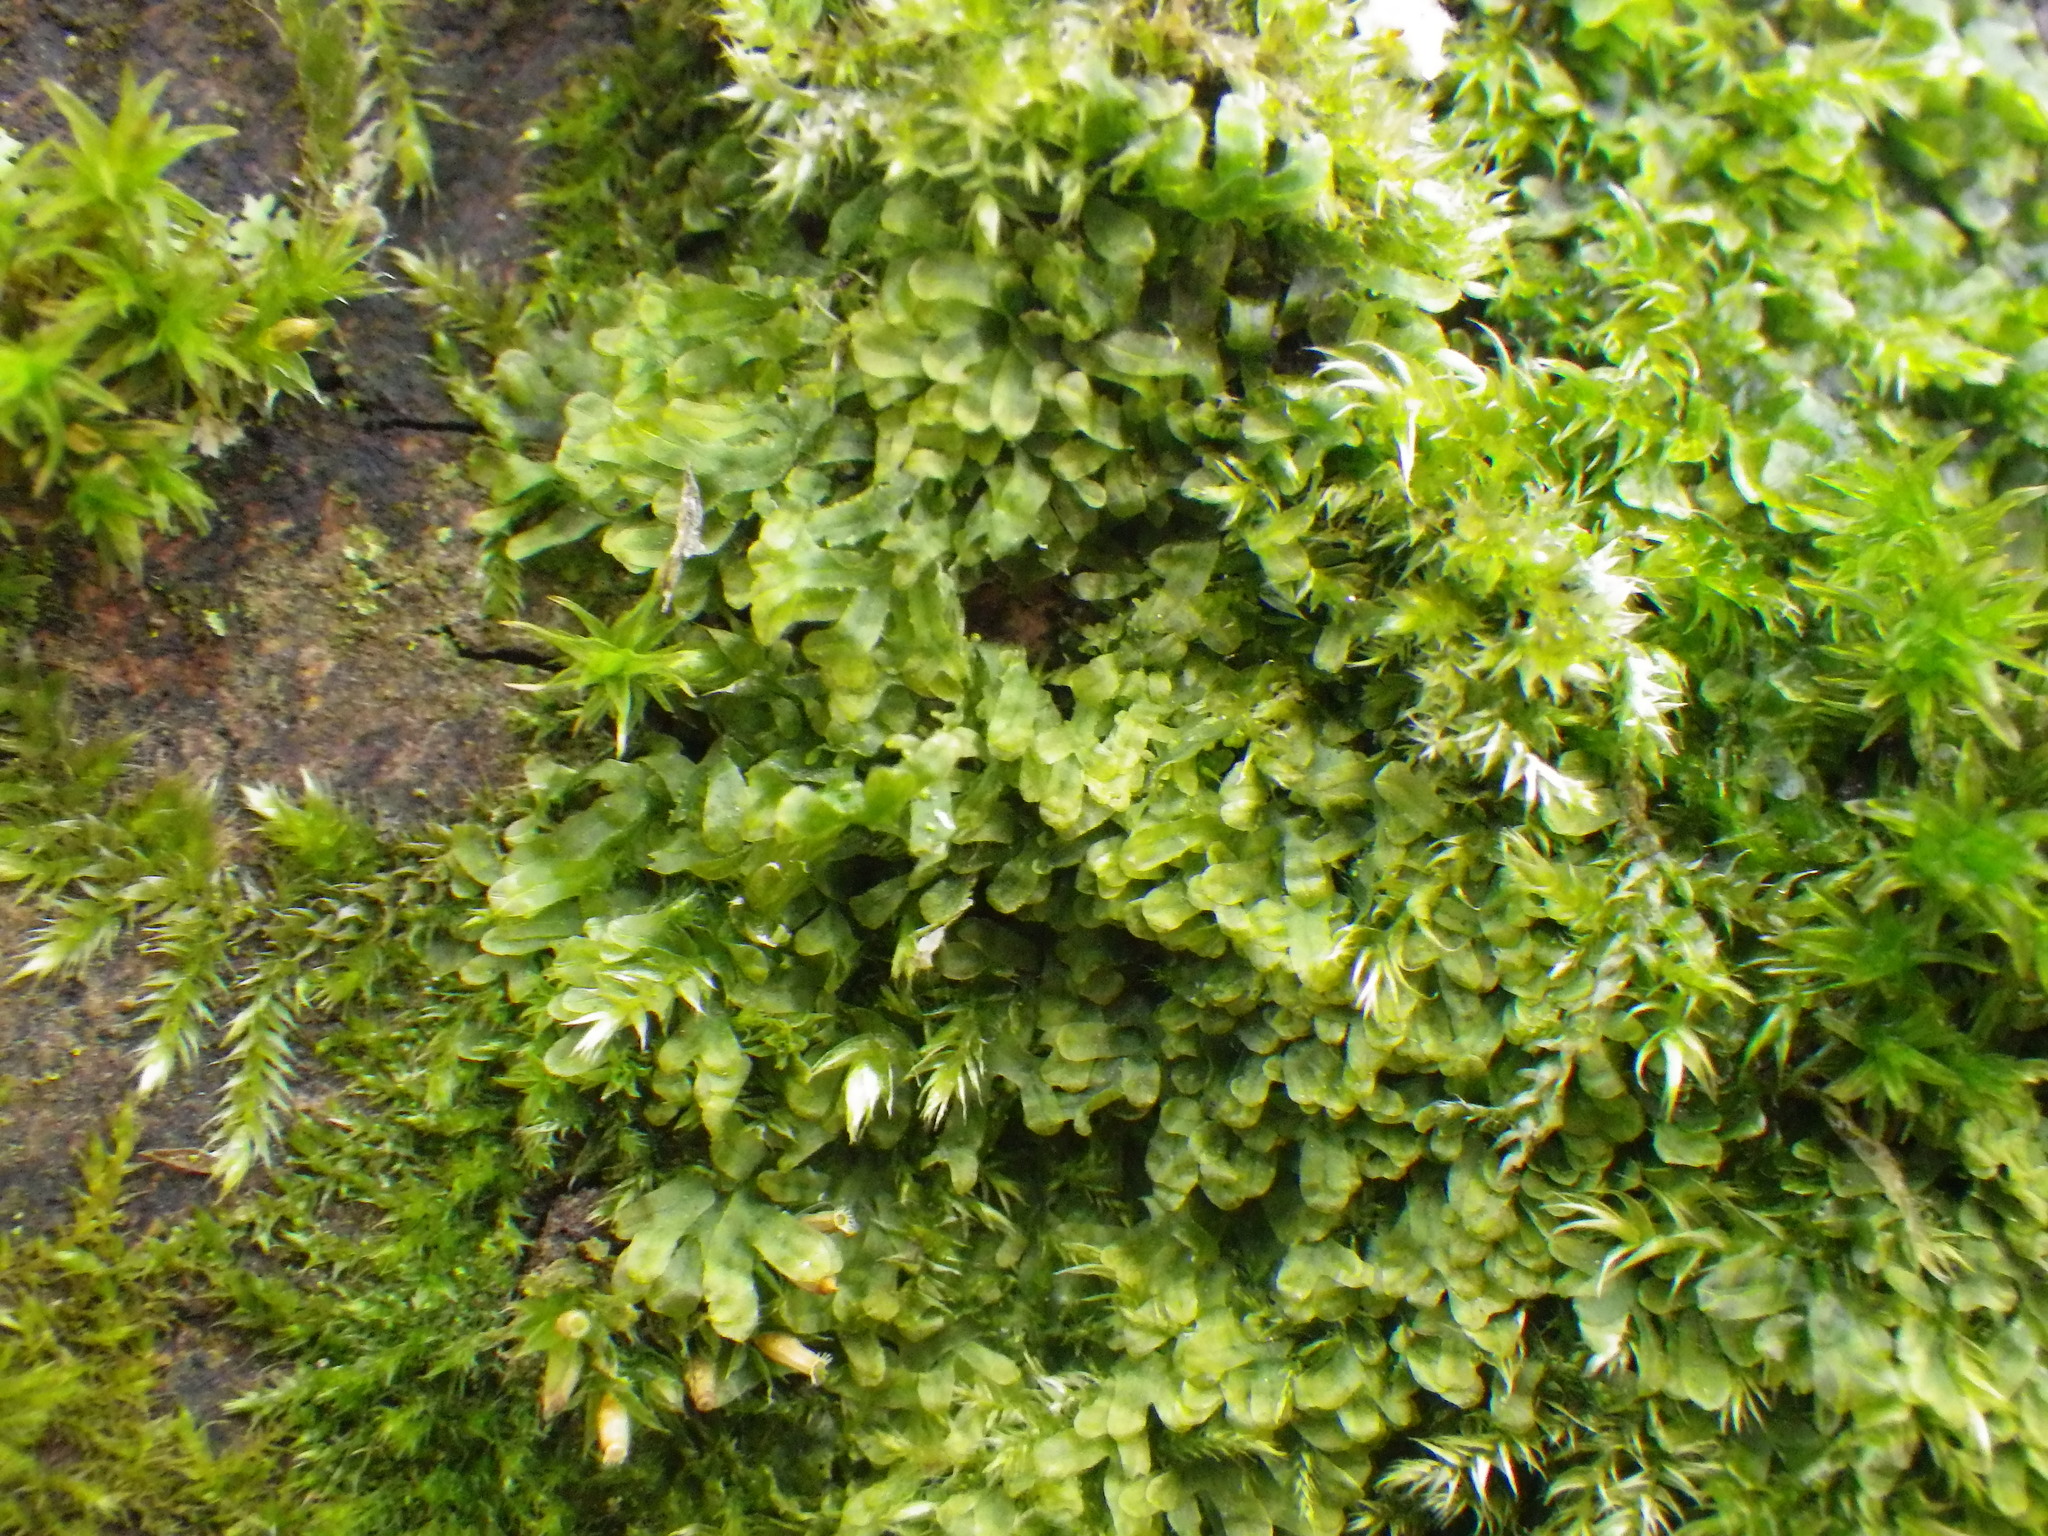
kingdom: Plantae
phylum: Marchantiophyta
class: Jungermanniopsida
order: Metzgeriales
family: Metzgeriaceae
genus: Metzgeria
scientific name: Metzgeria furcata
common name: Forked veilwort
